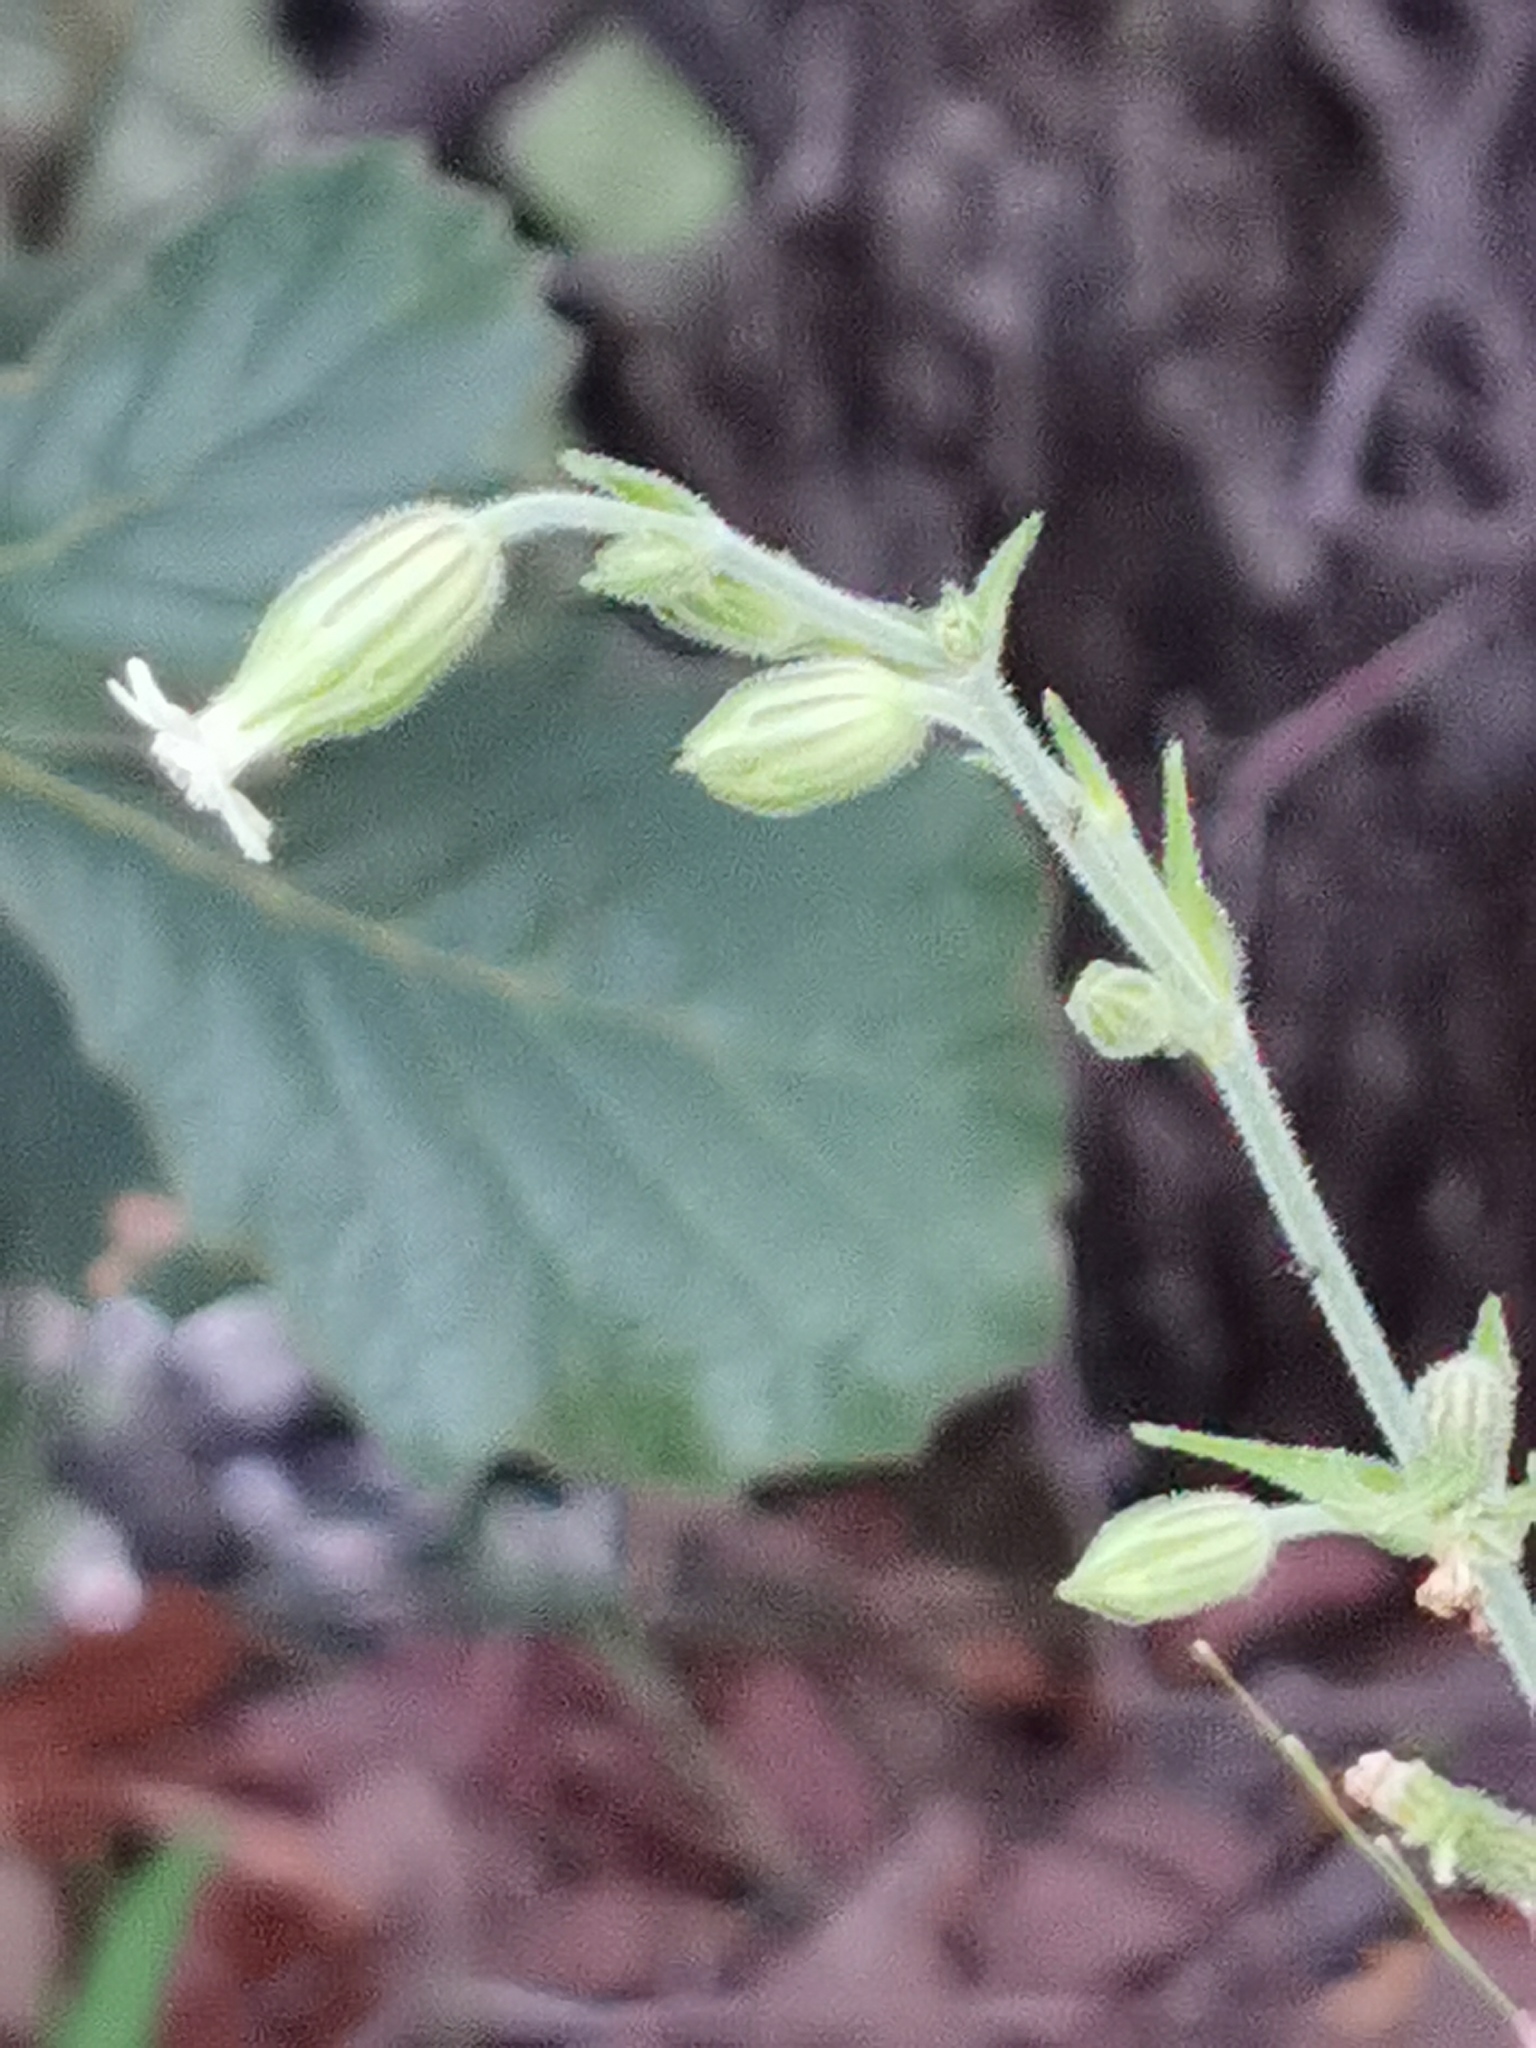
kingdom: Plantae
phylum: Tracheophyta
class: Magnoliopsida
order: Caryophyllales
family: Caryophyllaceae
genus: Silene
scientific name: Silene thurberi
